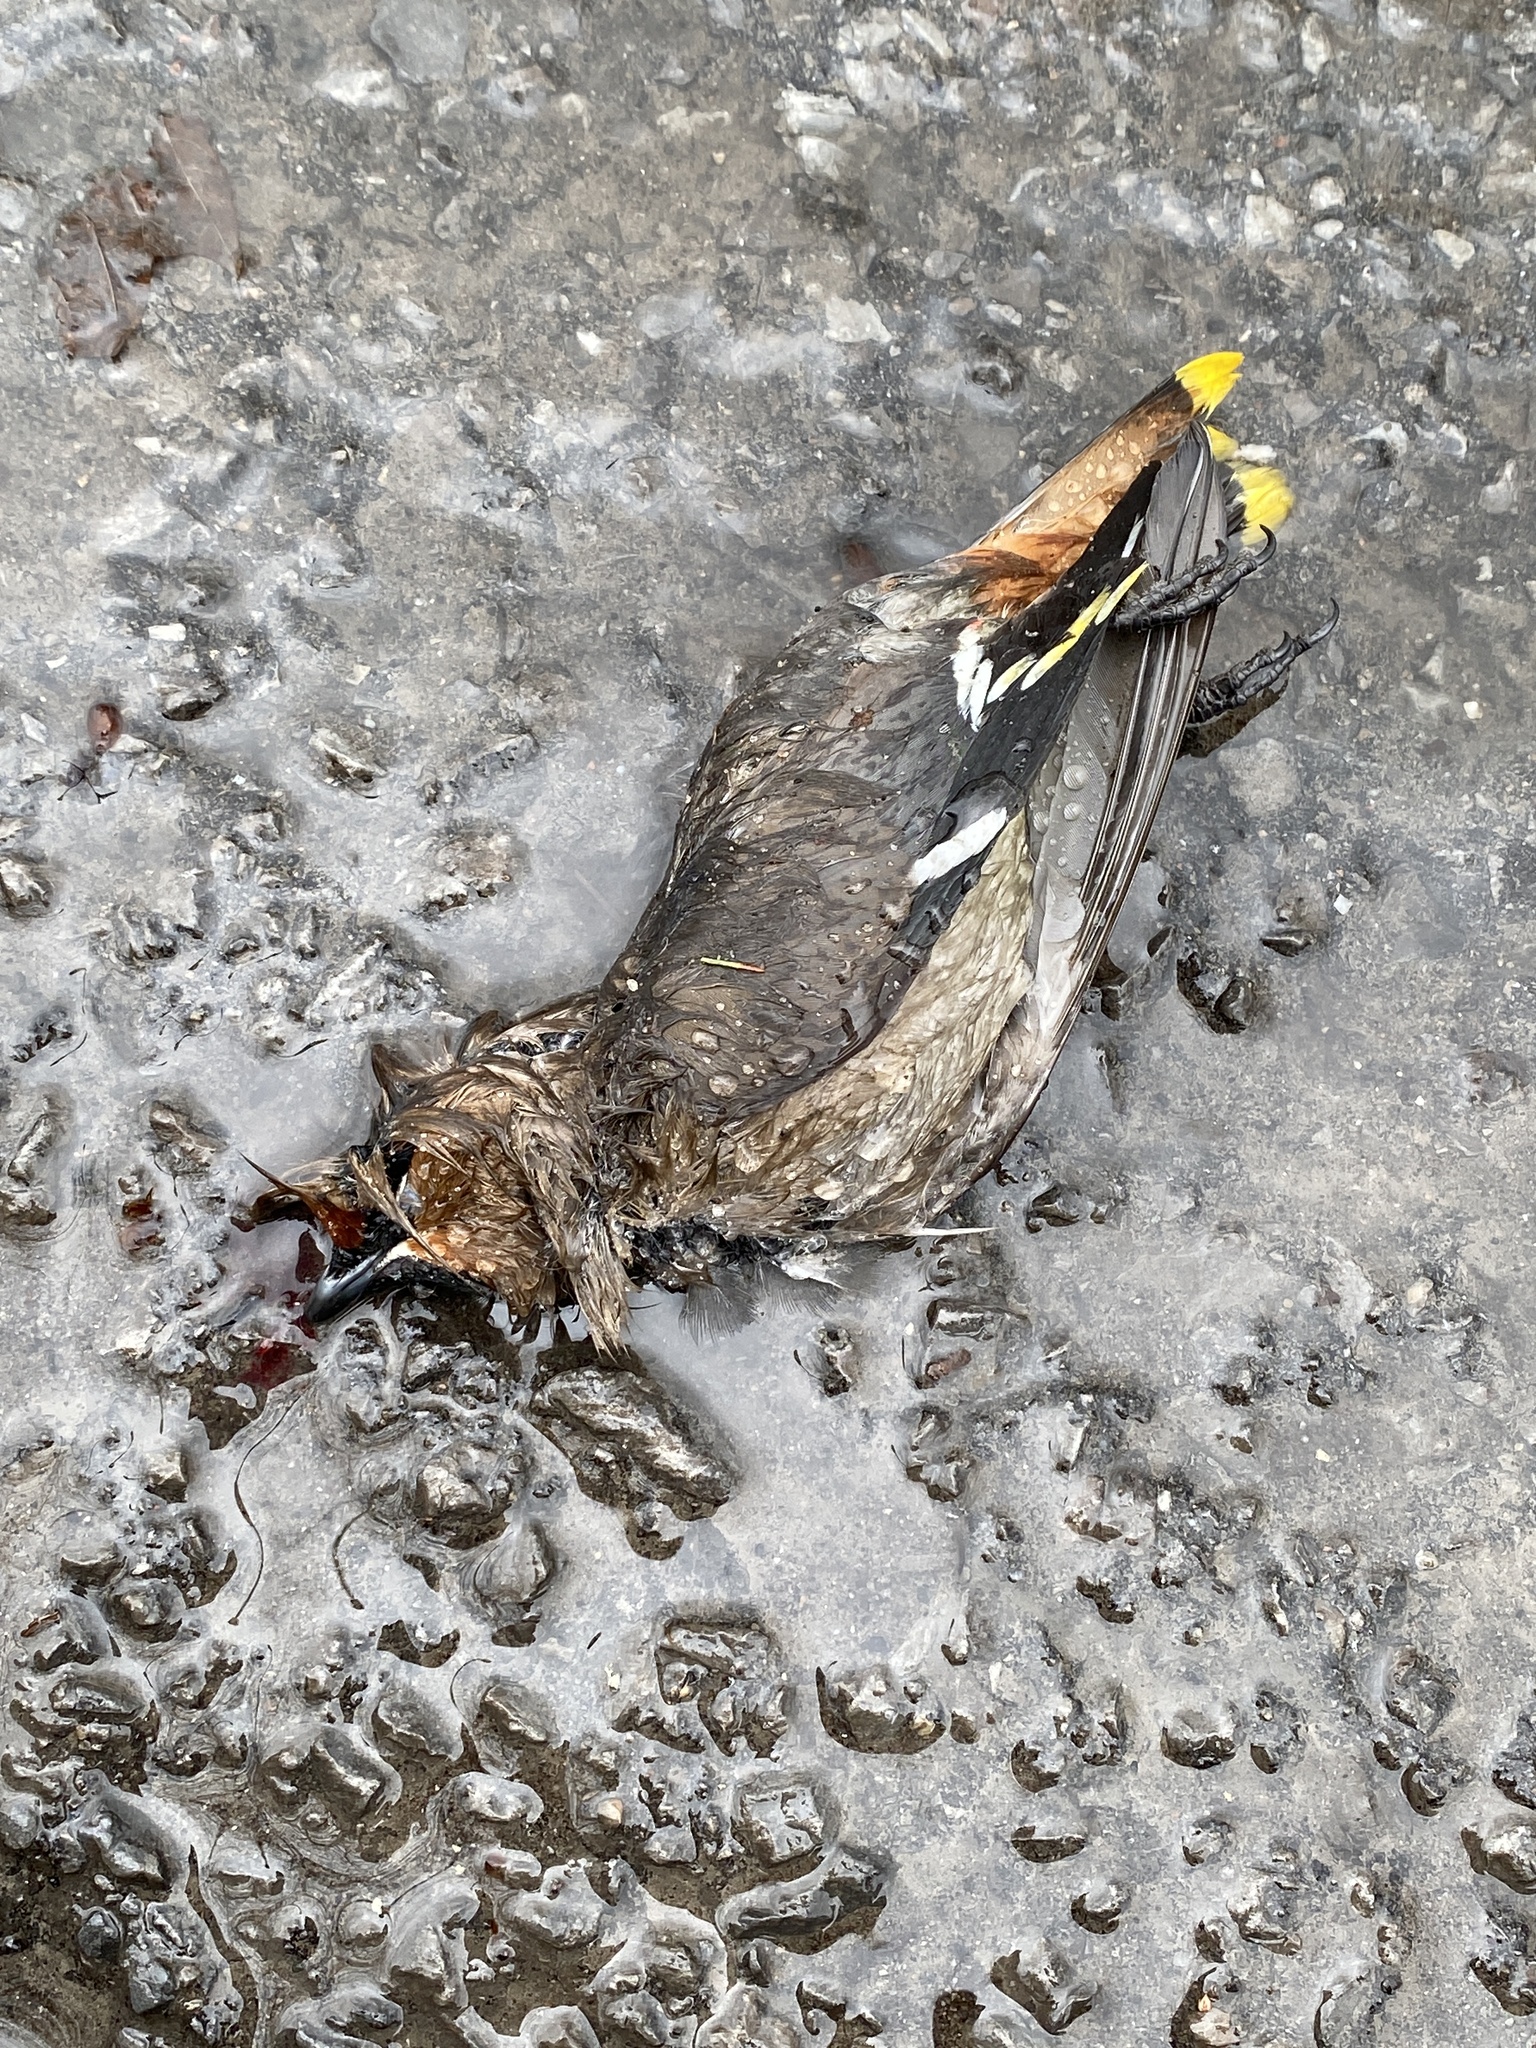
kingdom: Animalia
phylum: Chordata
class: Aves
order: Passeriformes
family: Bombycillidae
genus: Bombycilla
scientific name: Bombycilla garrulus
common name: Bohemian waxwing
